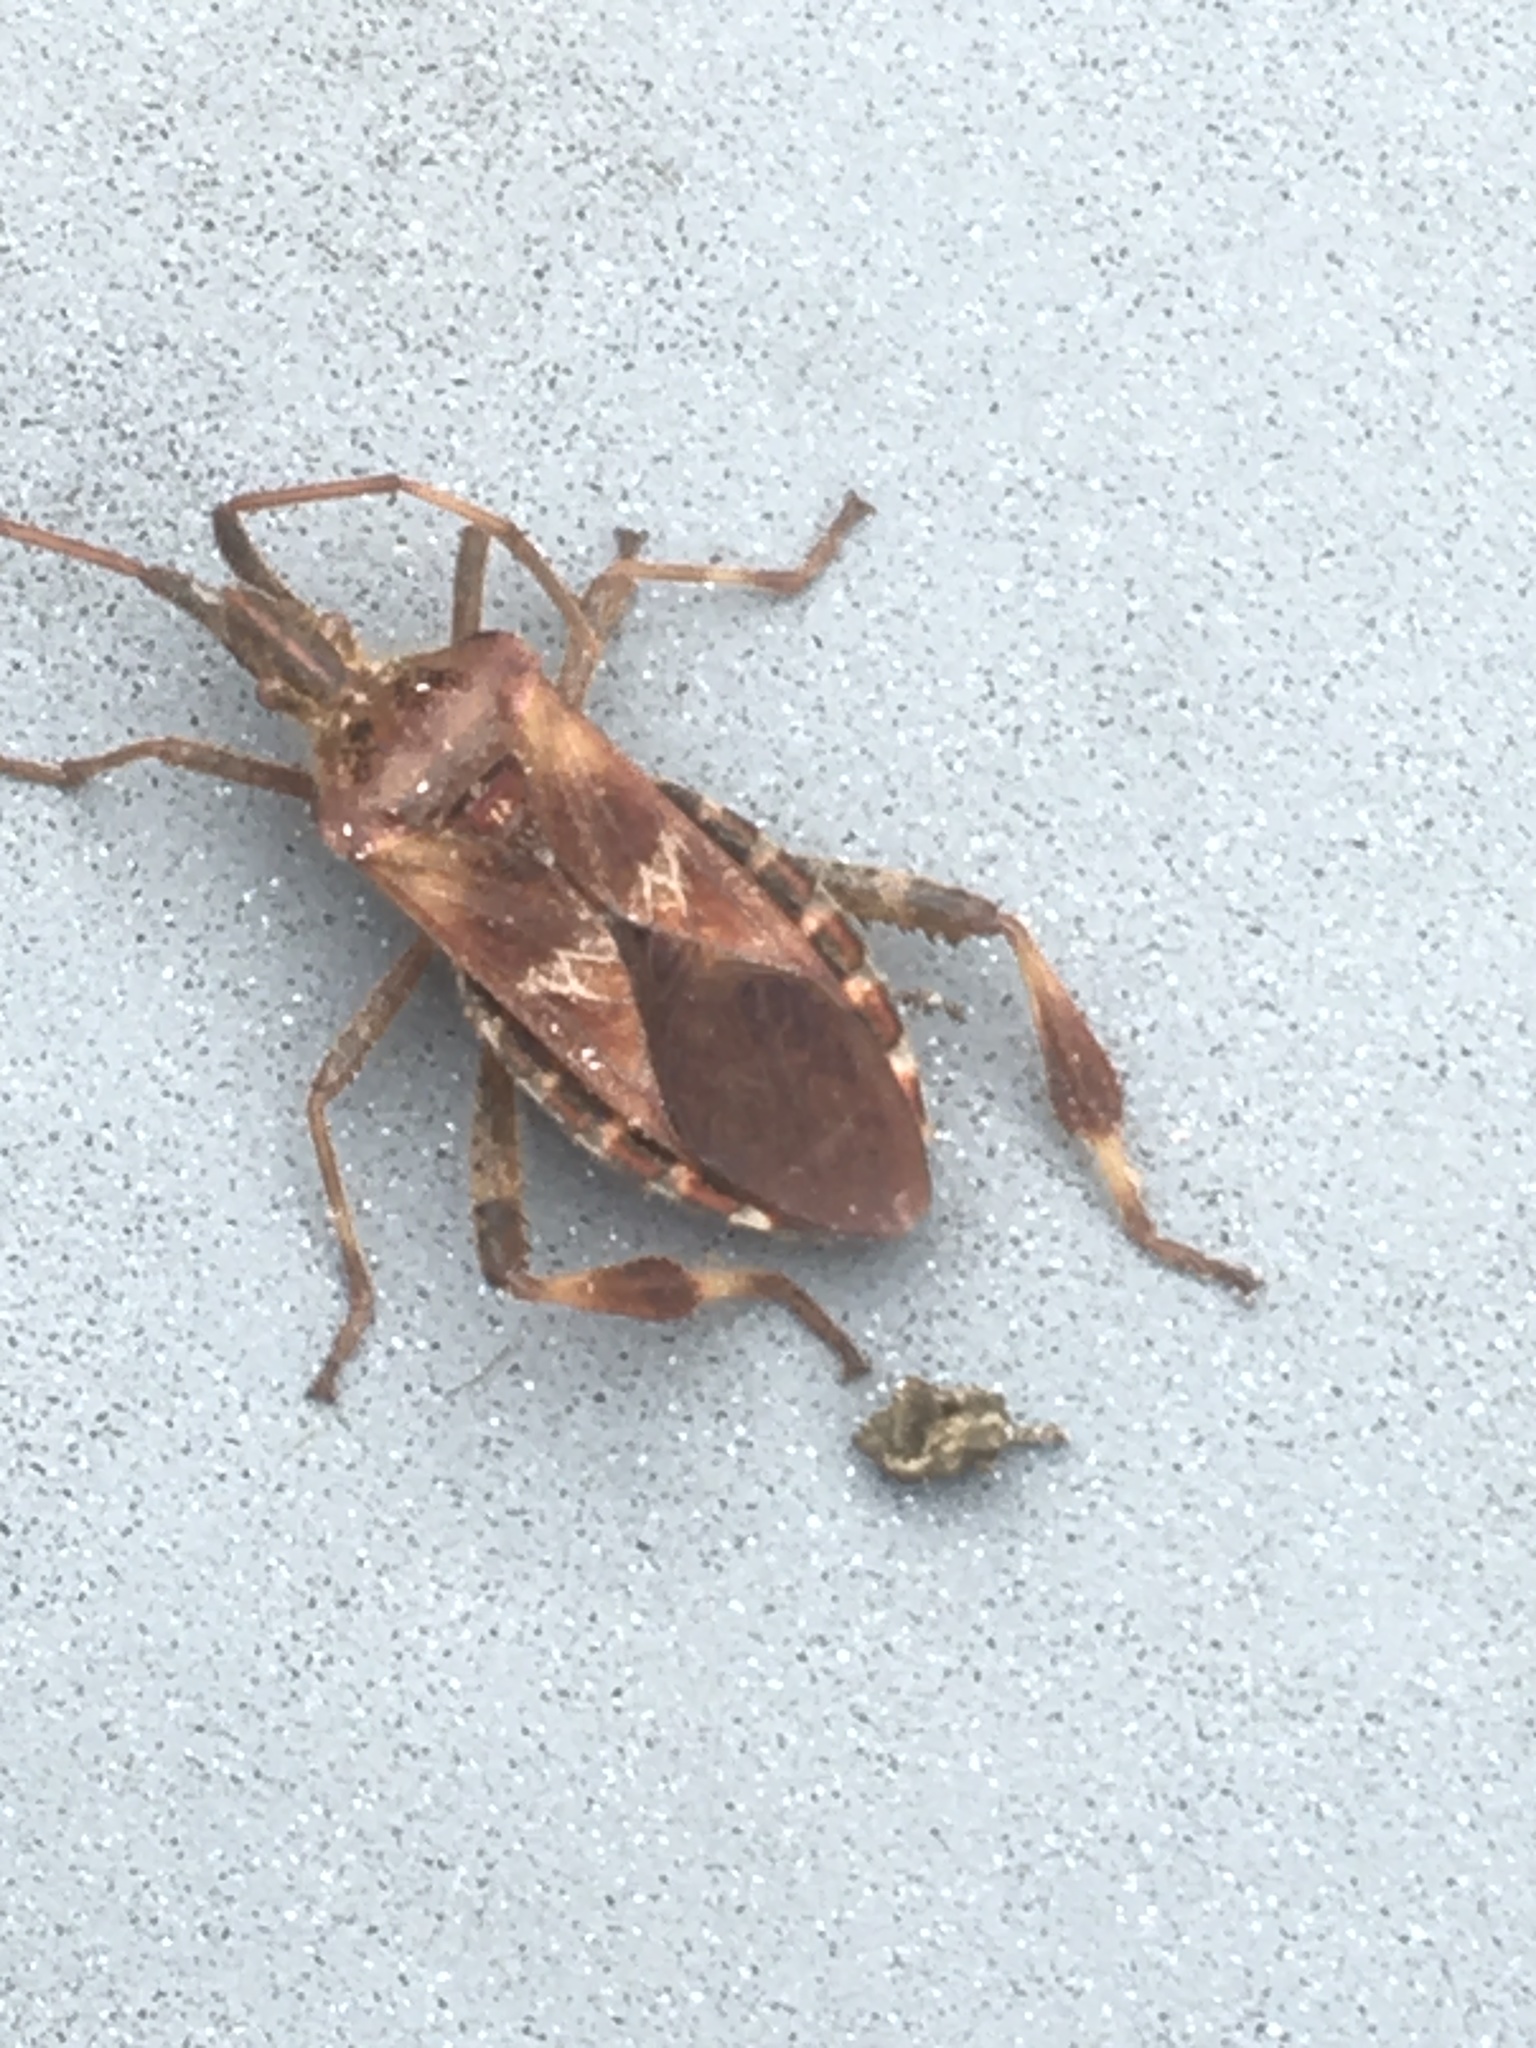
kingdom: Animalia
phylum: Arthropoda
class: Insecta
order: Hemiptera
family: Coreidae
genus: Leptoglossus
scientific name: Leptoglossus occidentalis
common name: Western conifer-seed bug
